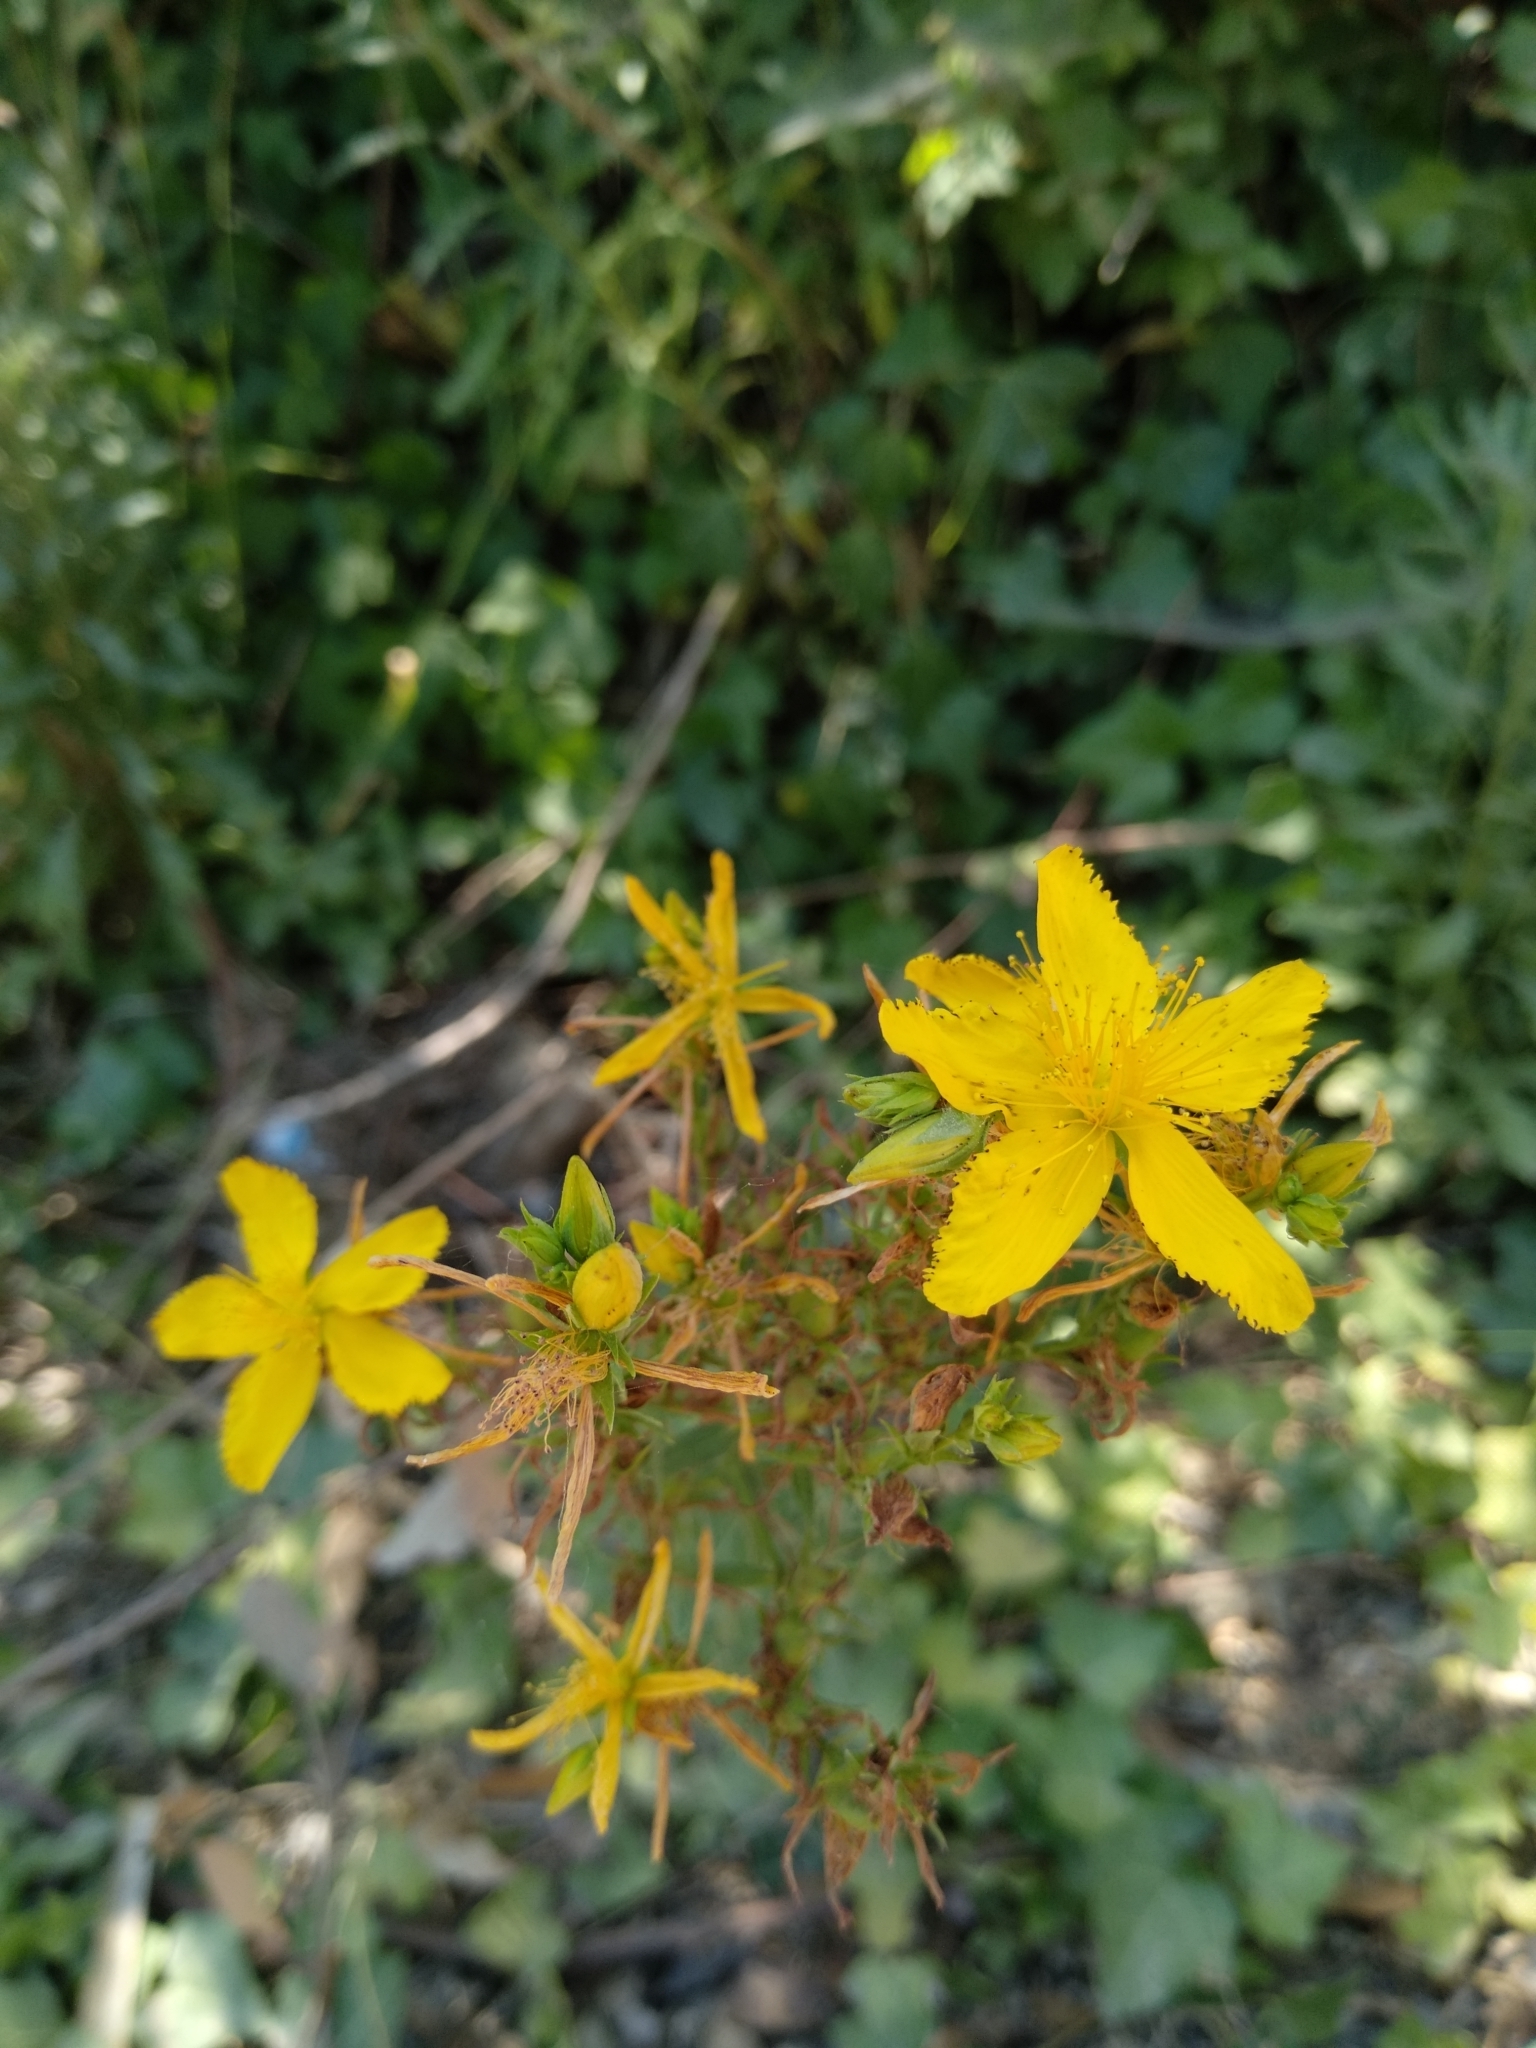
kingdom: Plantae
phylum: Tracheophyta
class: Magnoliopsida
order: Malpighiales
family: Hypericaceae
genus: Hypericum
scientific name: Hypericum perforatum
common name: Common st. johnswort
